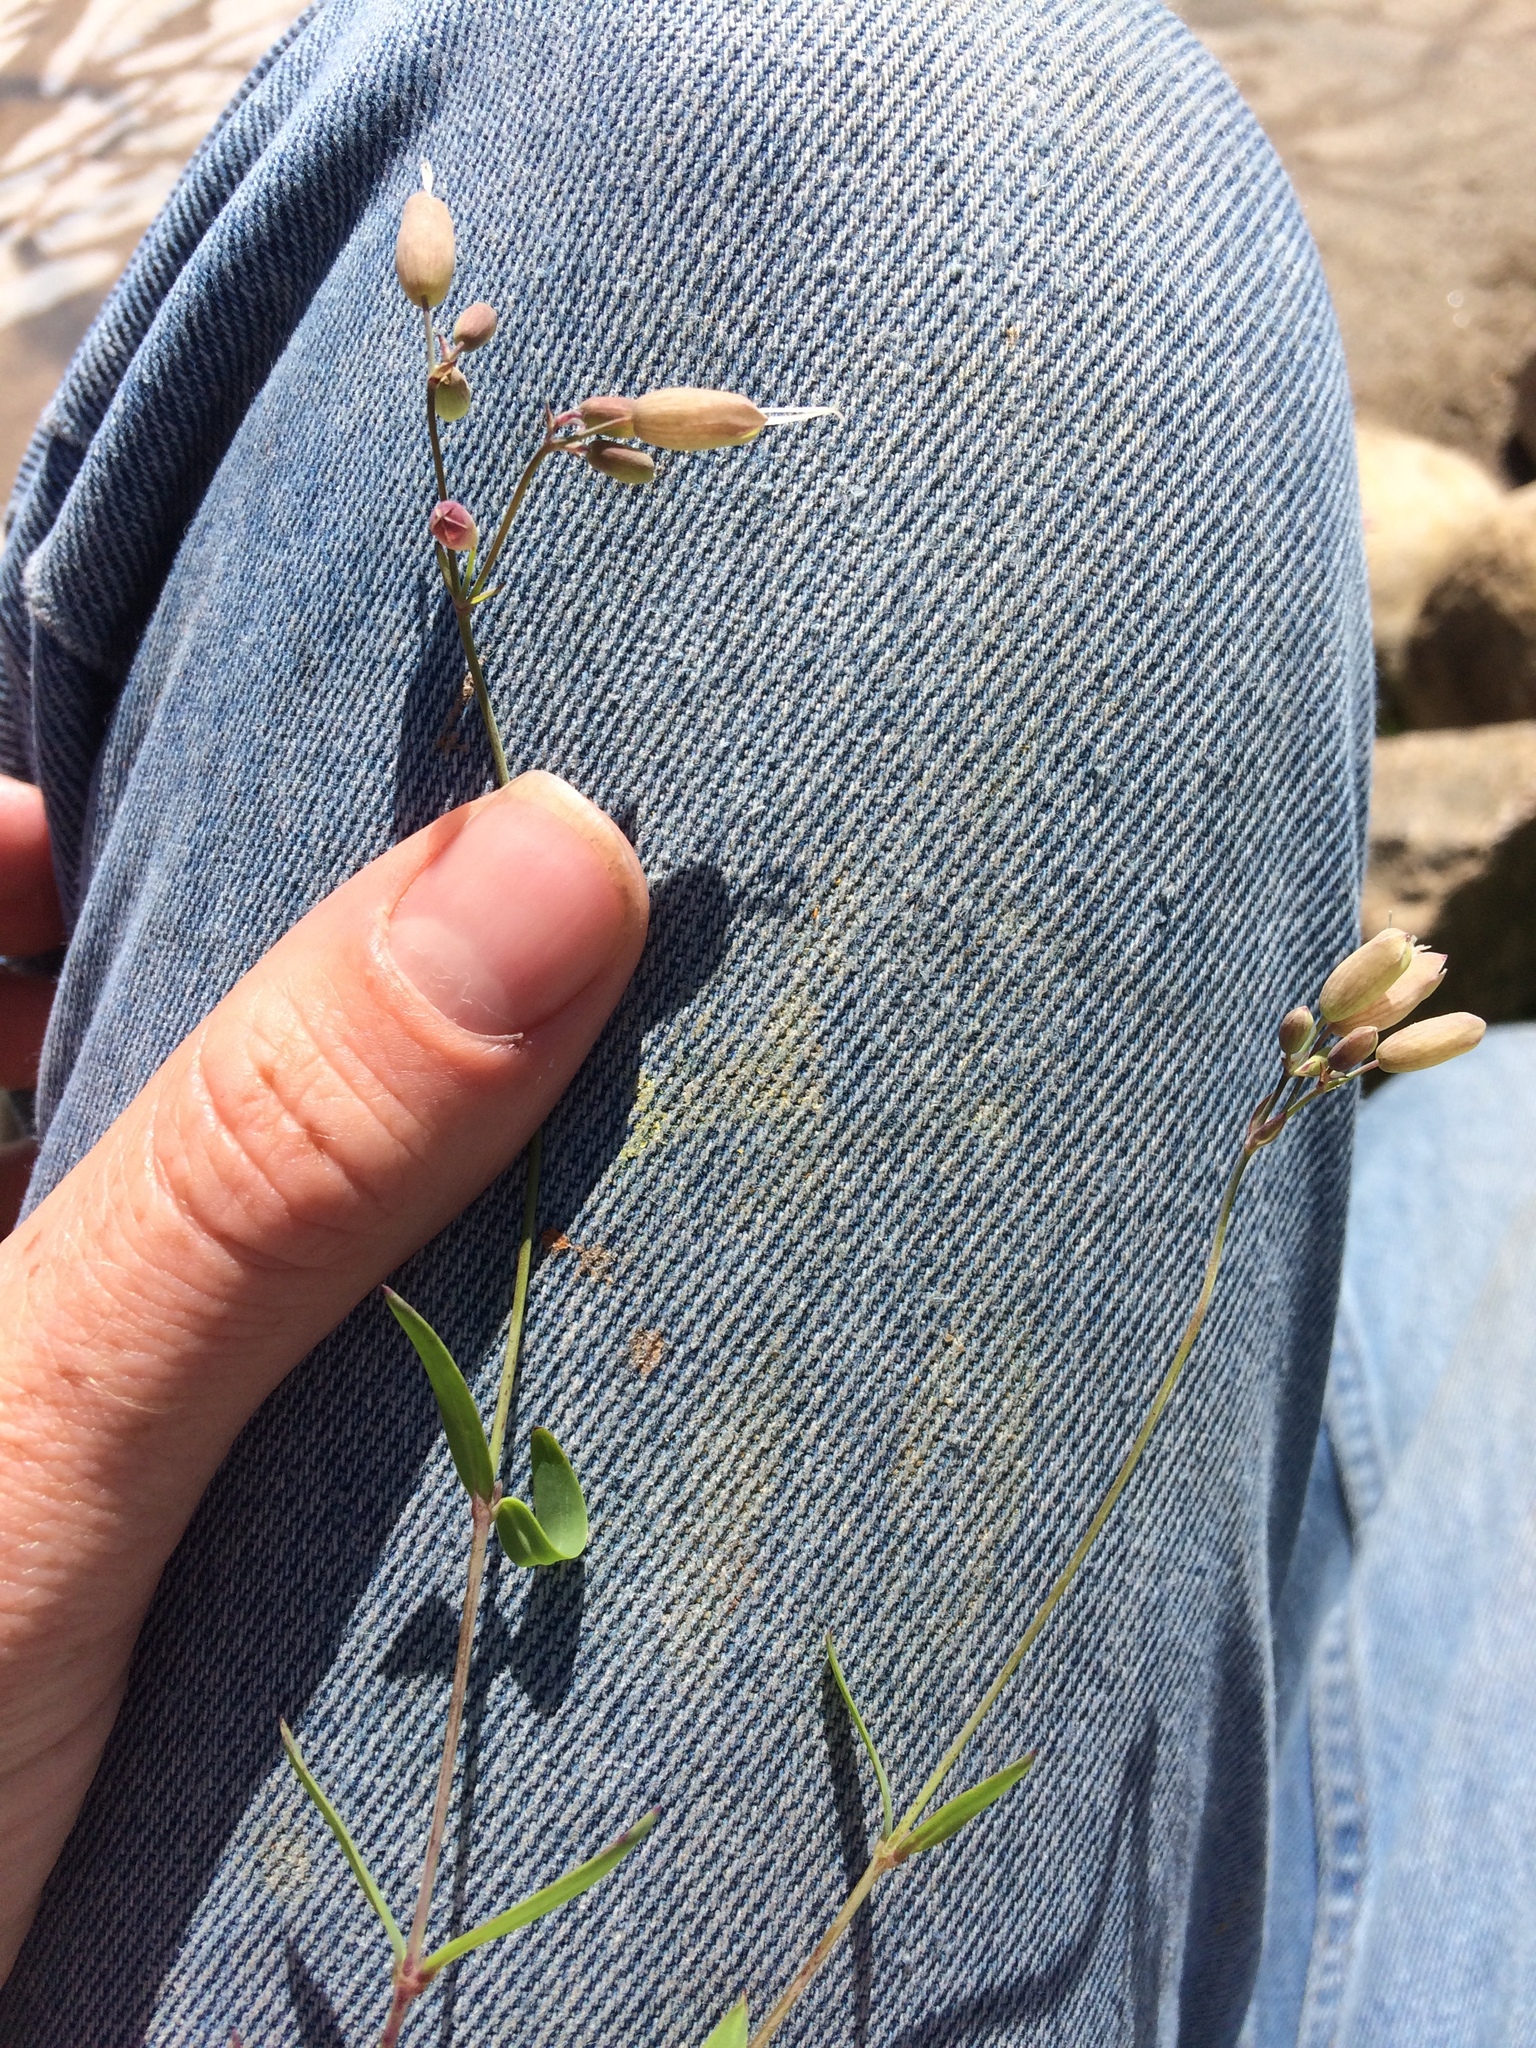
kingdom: Plantae
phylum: Tracheophyta
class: Magnoliopsida
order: Caryophyllales
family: Caryophyllaceae
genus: Silene
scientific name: Silene vulgaris
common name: Bladder campion
